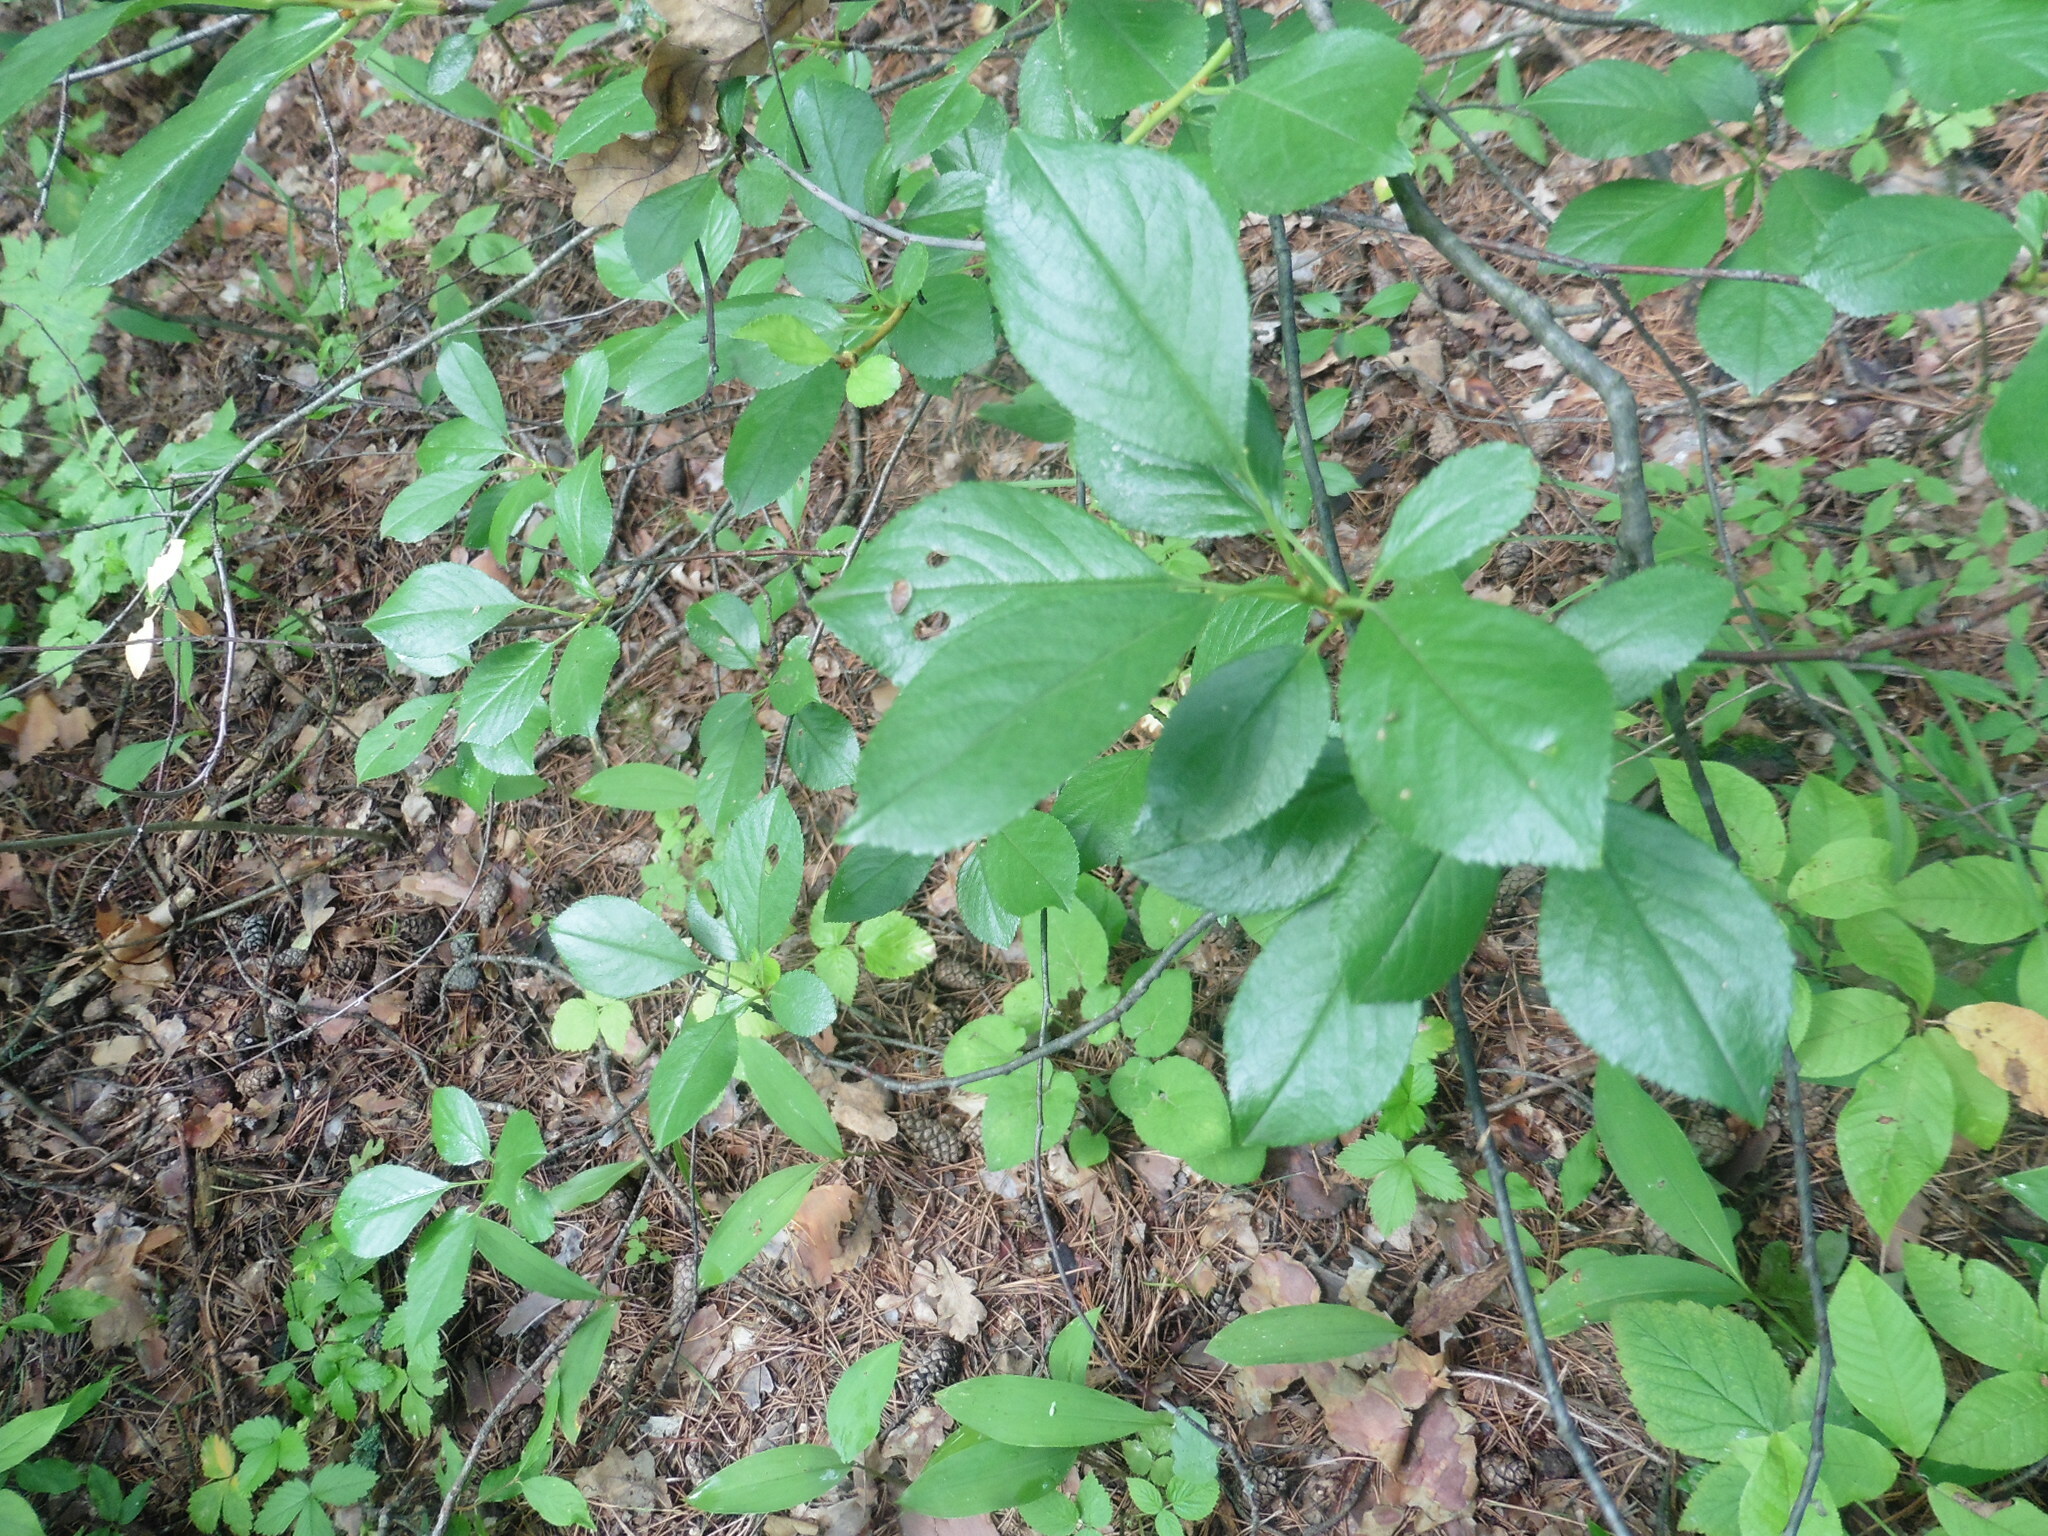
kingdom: Plantae
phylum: Tracheophyta
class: Magnoliopsida
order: Rosales
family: Rosaceae
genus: Prunus
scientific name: Prunus cerasus
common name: Morello cherry
